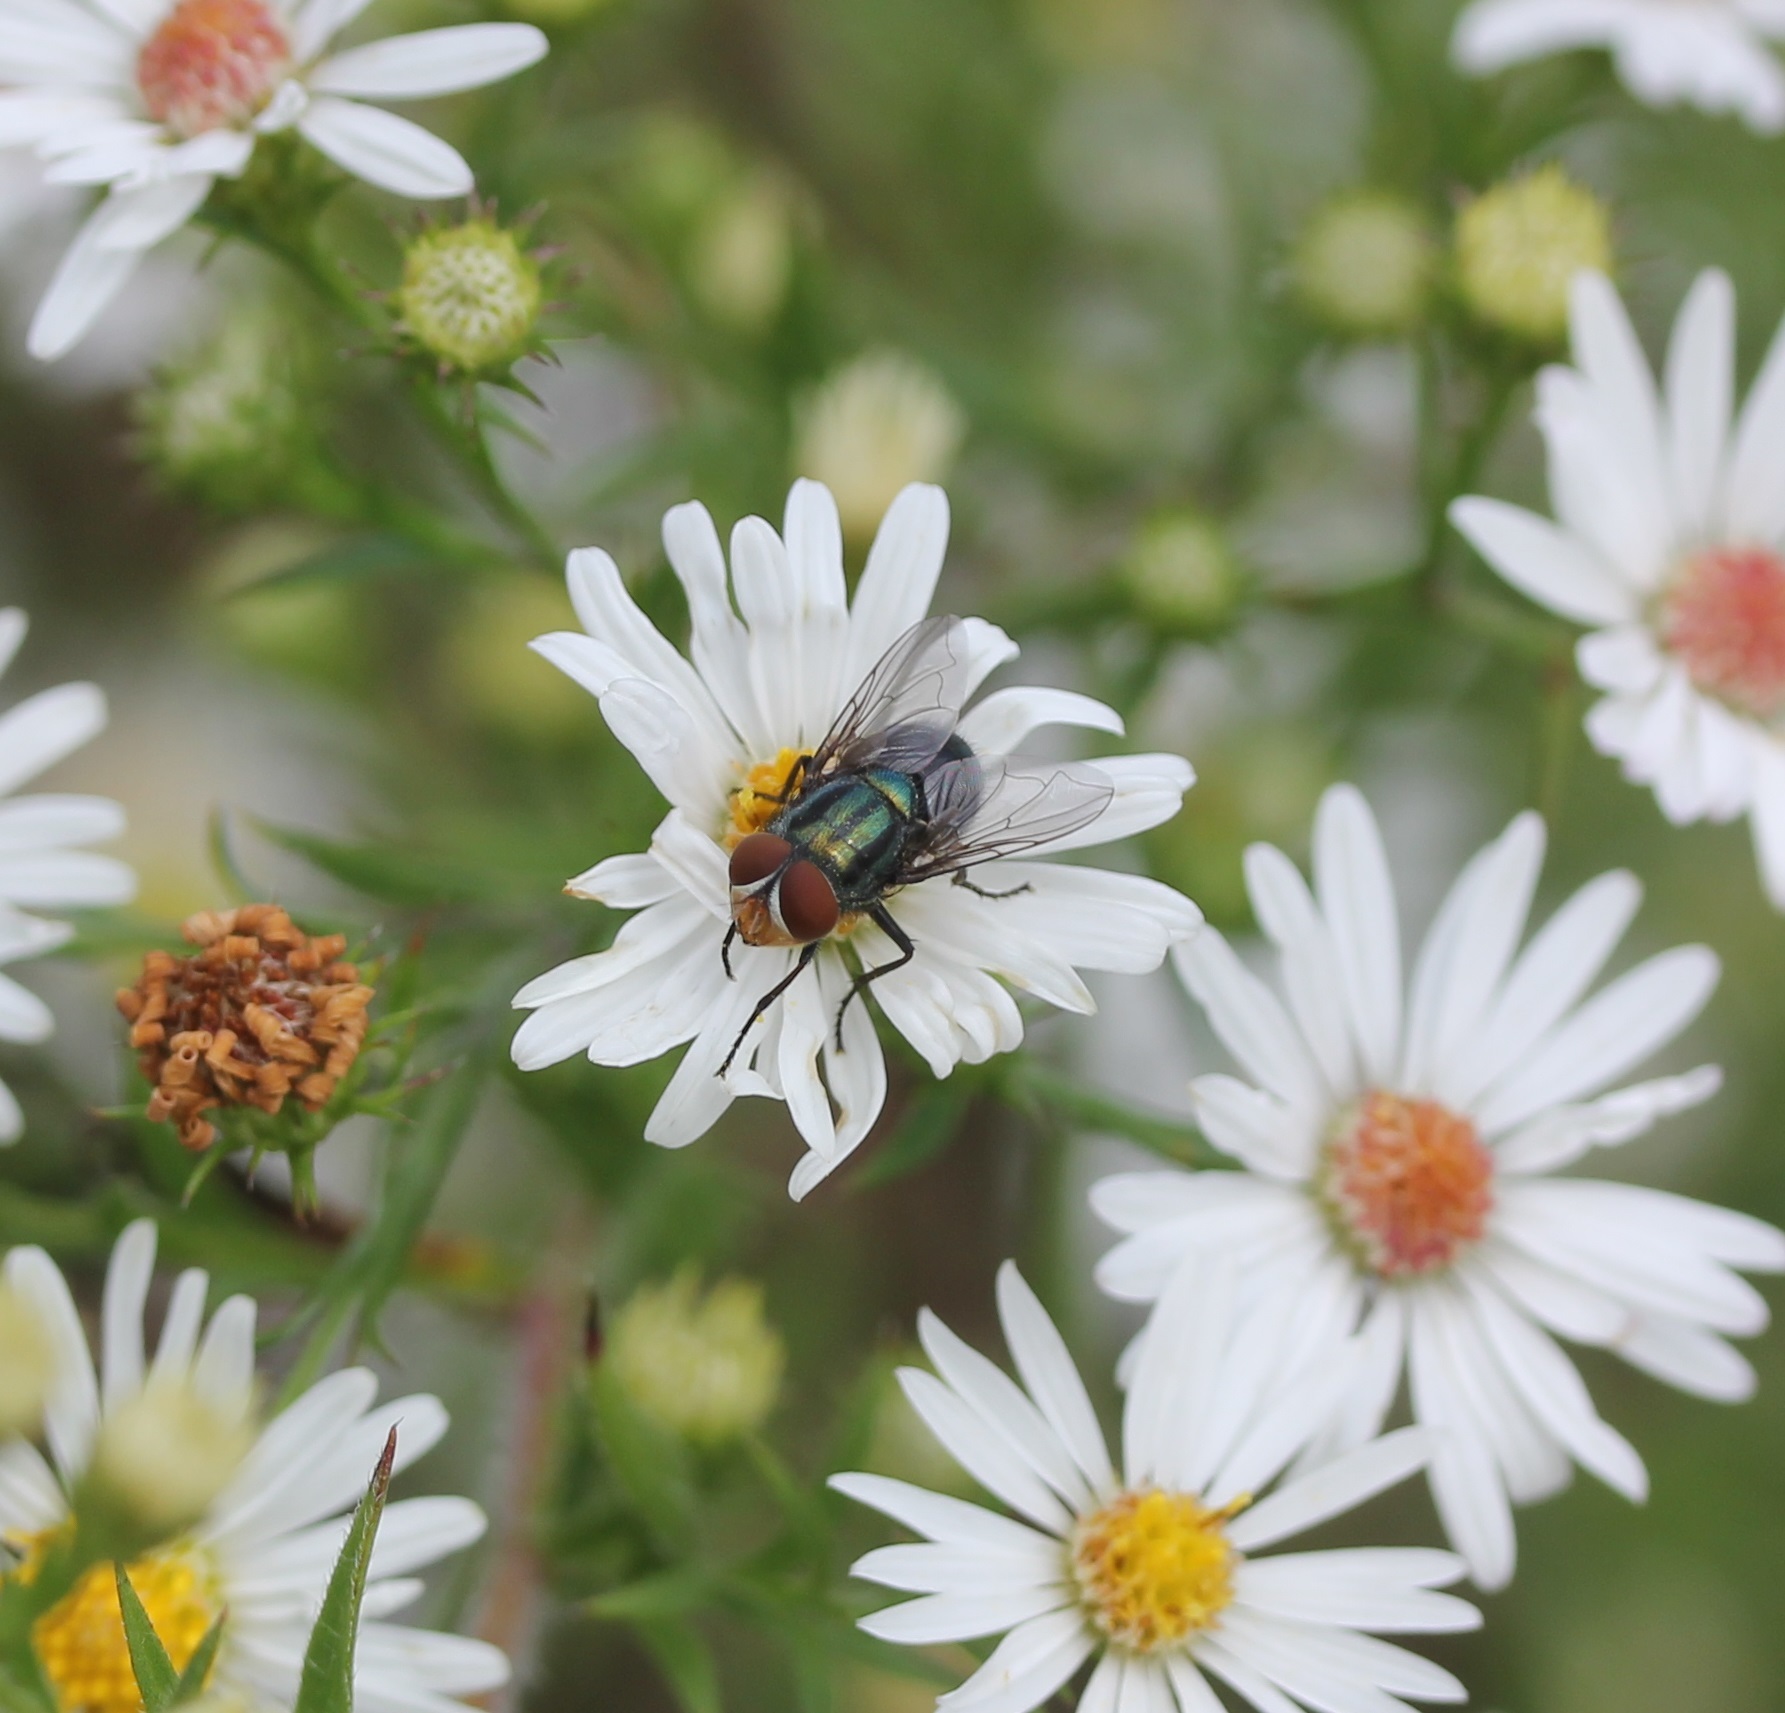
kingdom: Animalia
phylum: Arthropoda
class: Insecta
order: Diptera
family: Calliphoridae
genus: Cochliomyia
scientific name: Cochliomyia macellaria
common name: Secondary screwworm
